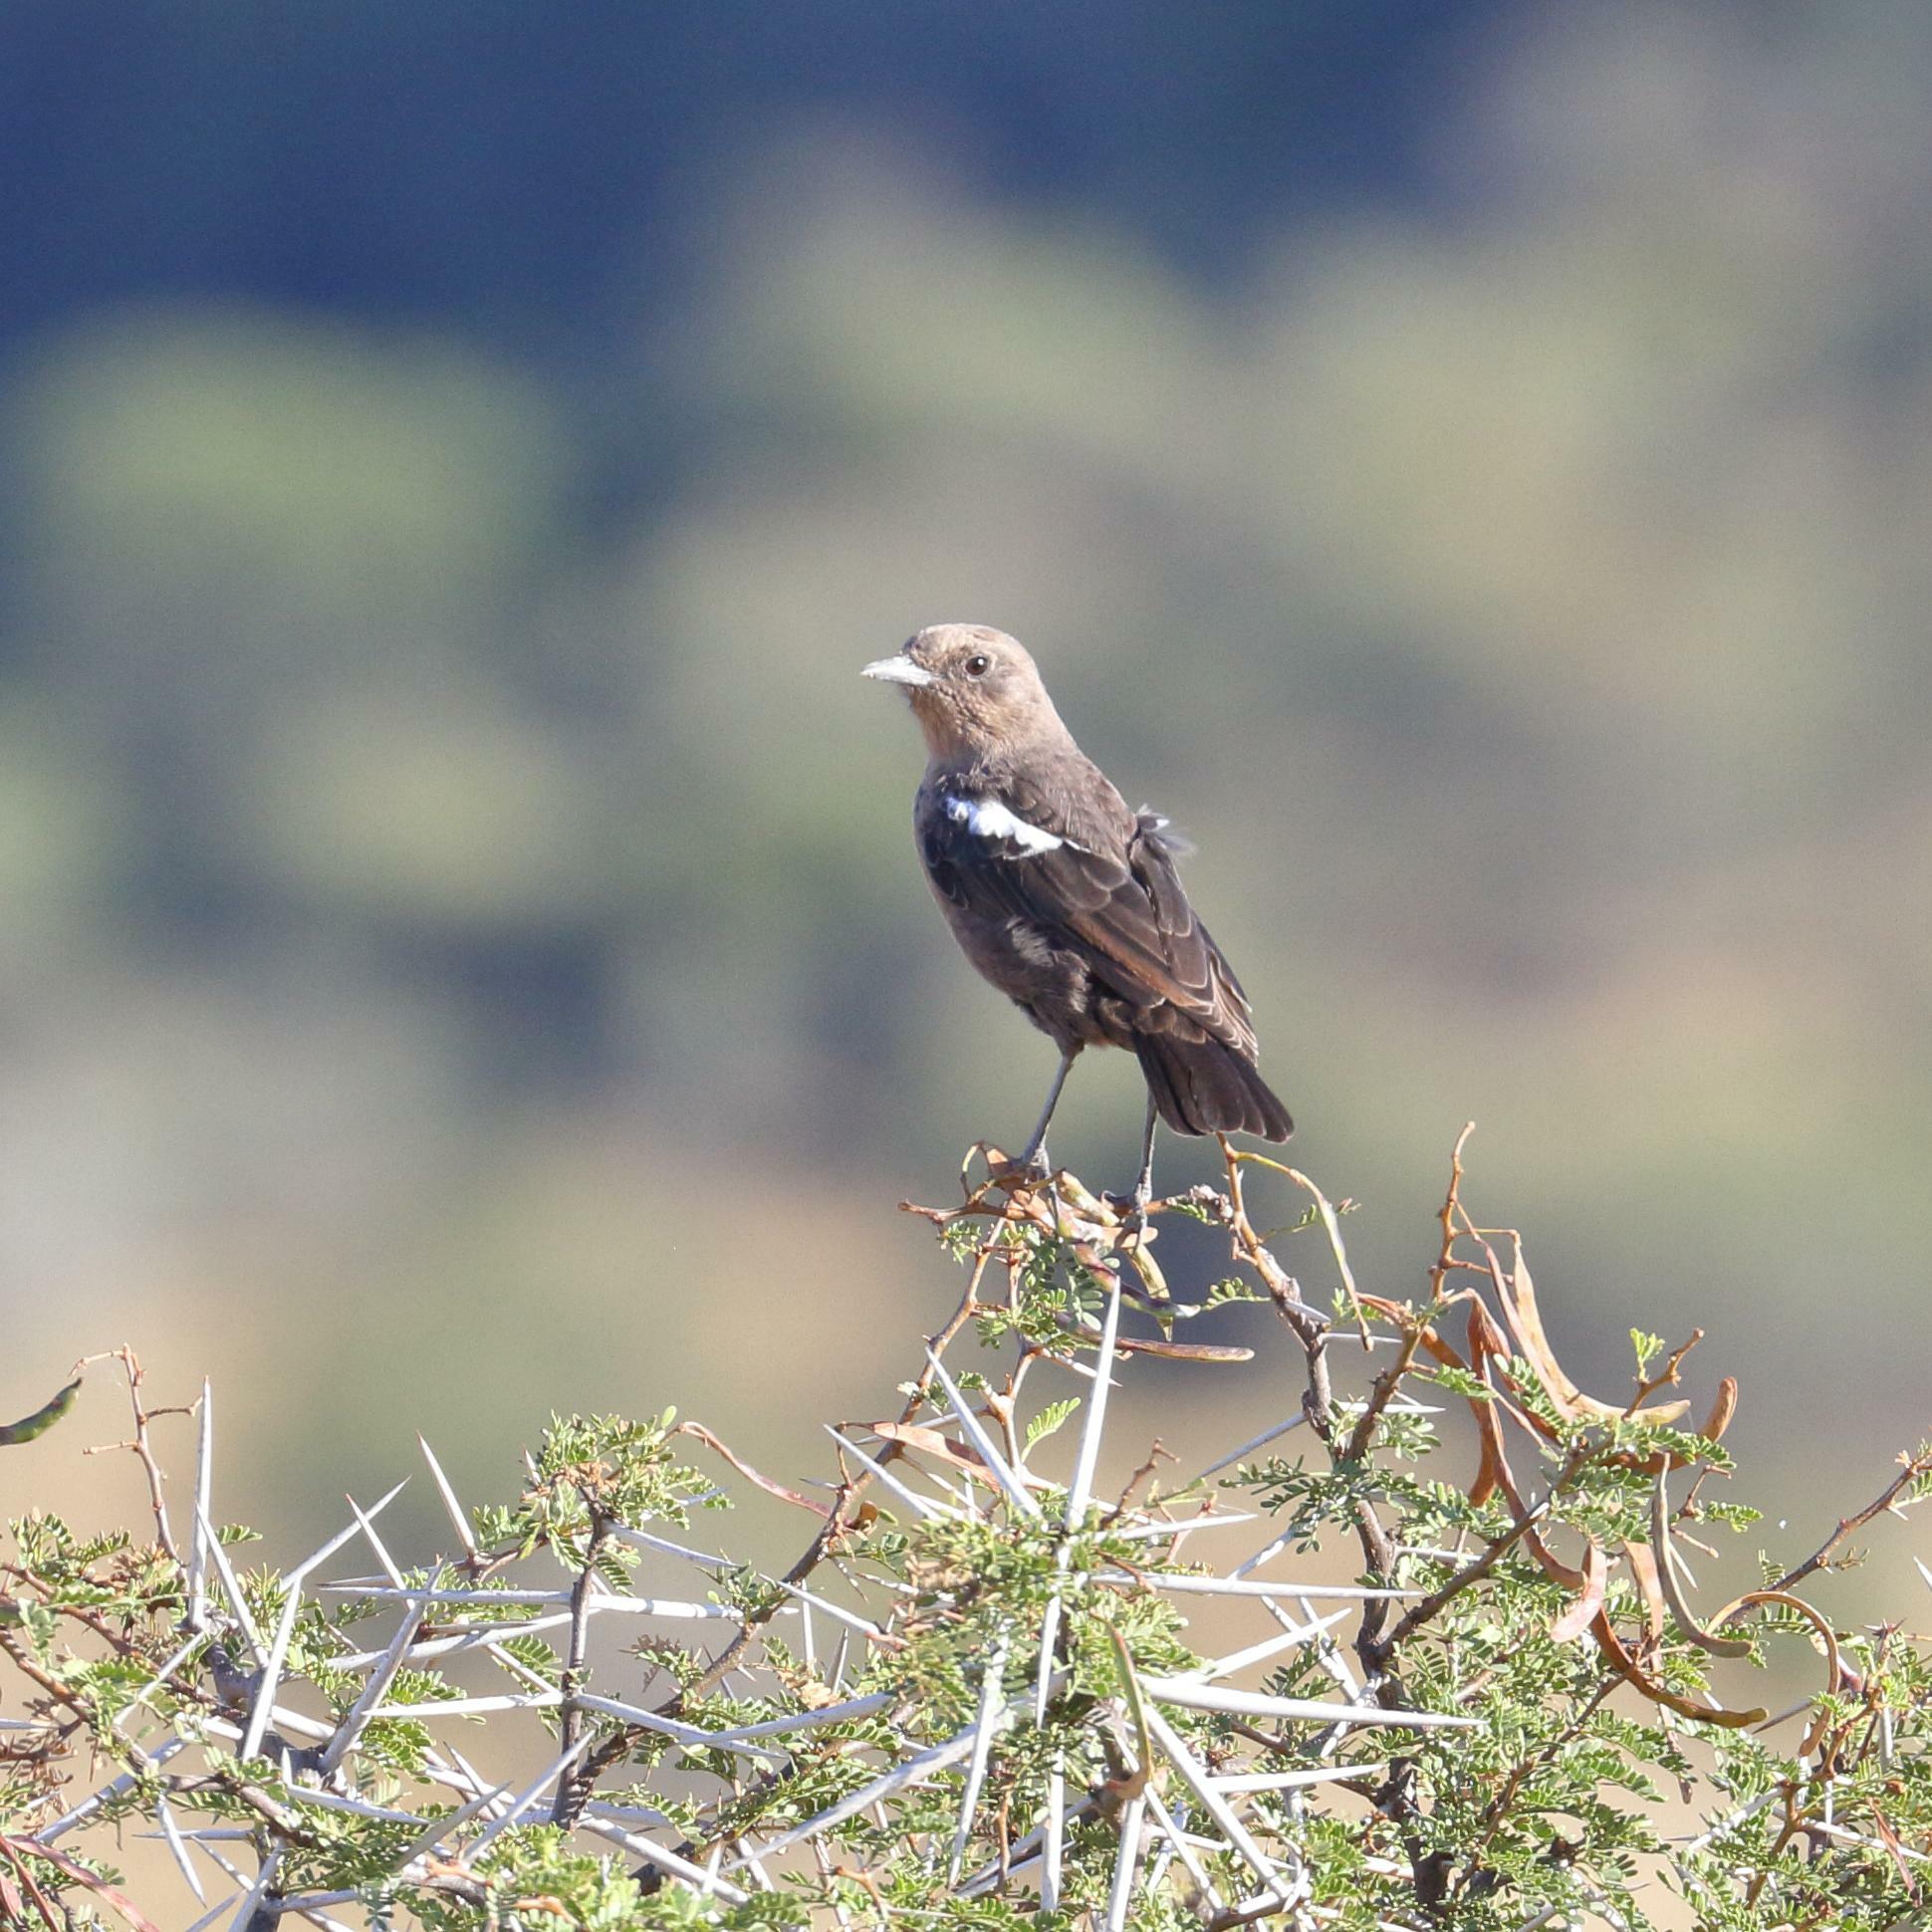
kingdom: Animalia
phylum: Chordata
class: Aves
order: Passeriformes
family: Muscicapidae
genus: Myrmecocichla
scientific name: Myrmecocichla formicivora
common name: Ant-eating chat
